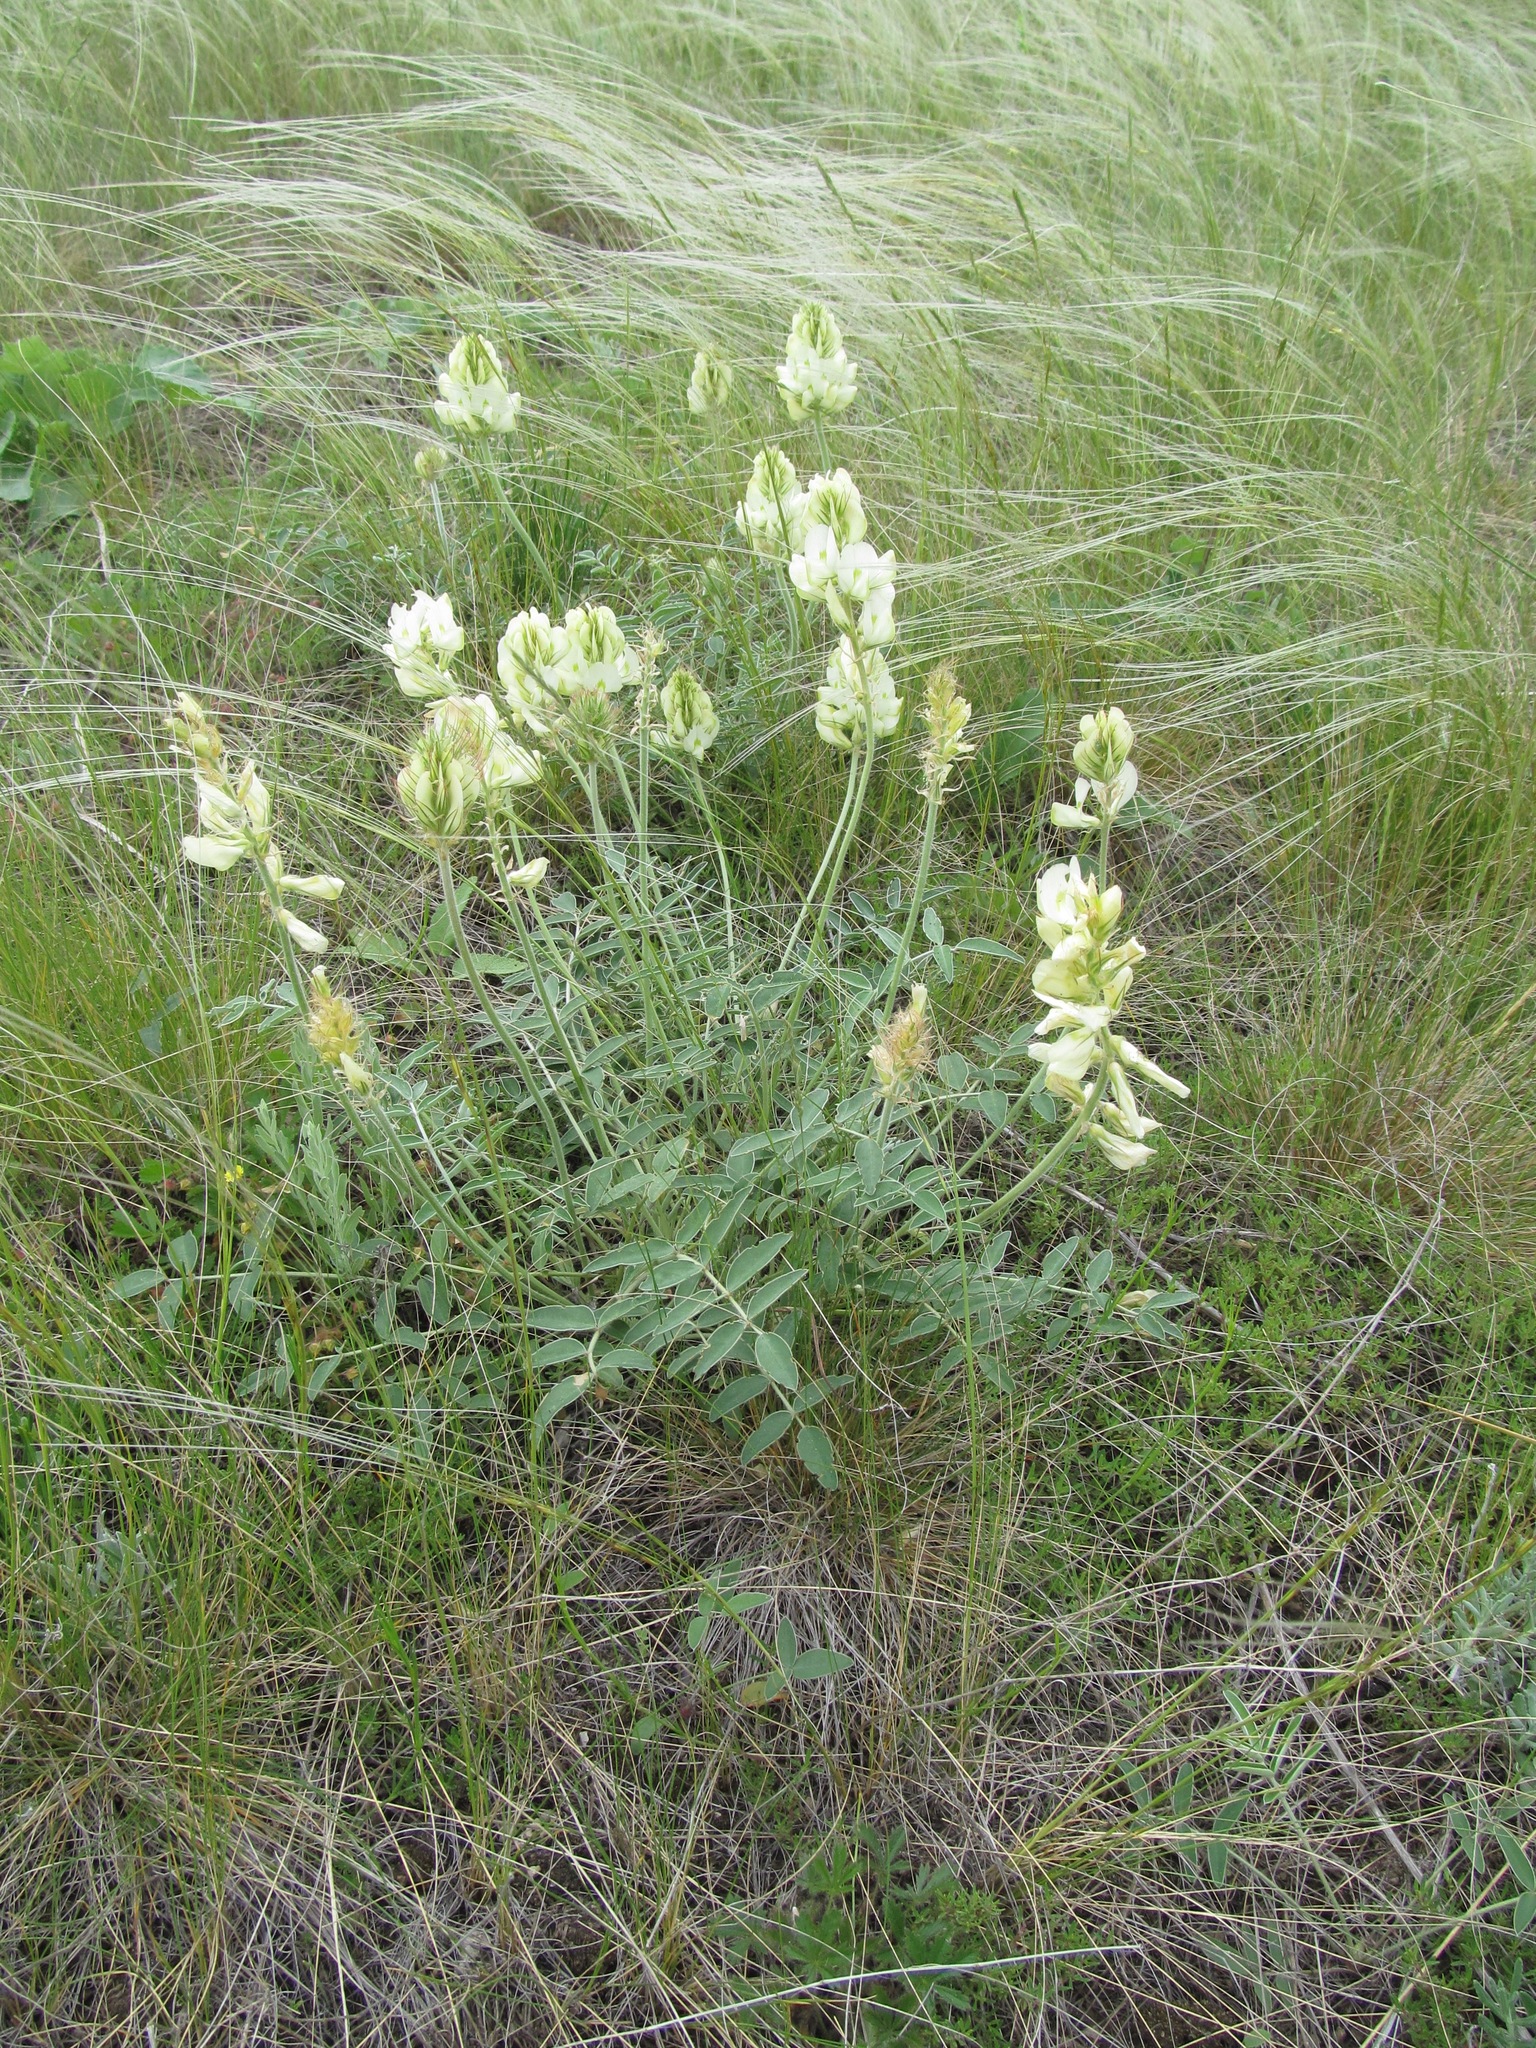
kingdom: Plantae
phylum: Tracheophyta
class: Magnoliopsida
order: Fabales
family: Fabaceae
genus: Hedysarum
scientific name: Hedysarum grandiflorum
